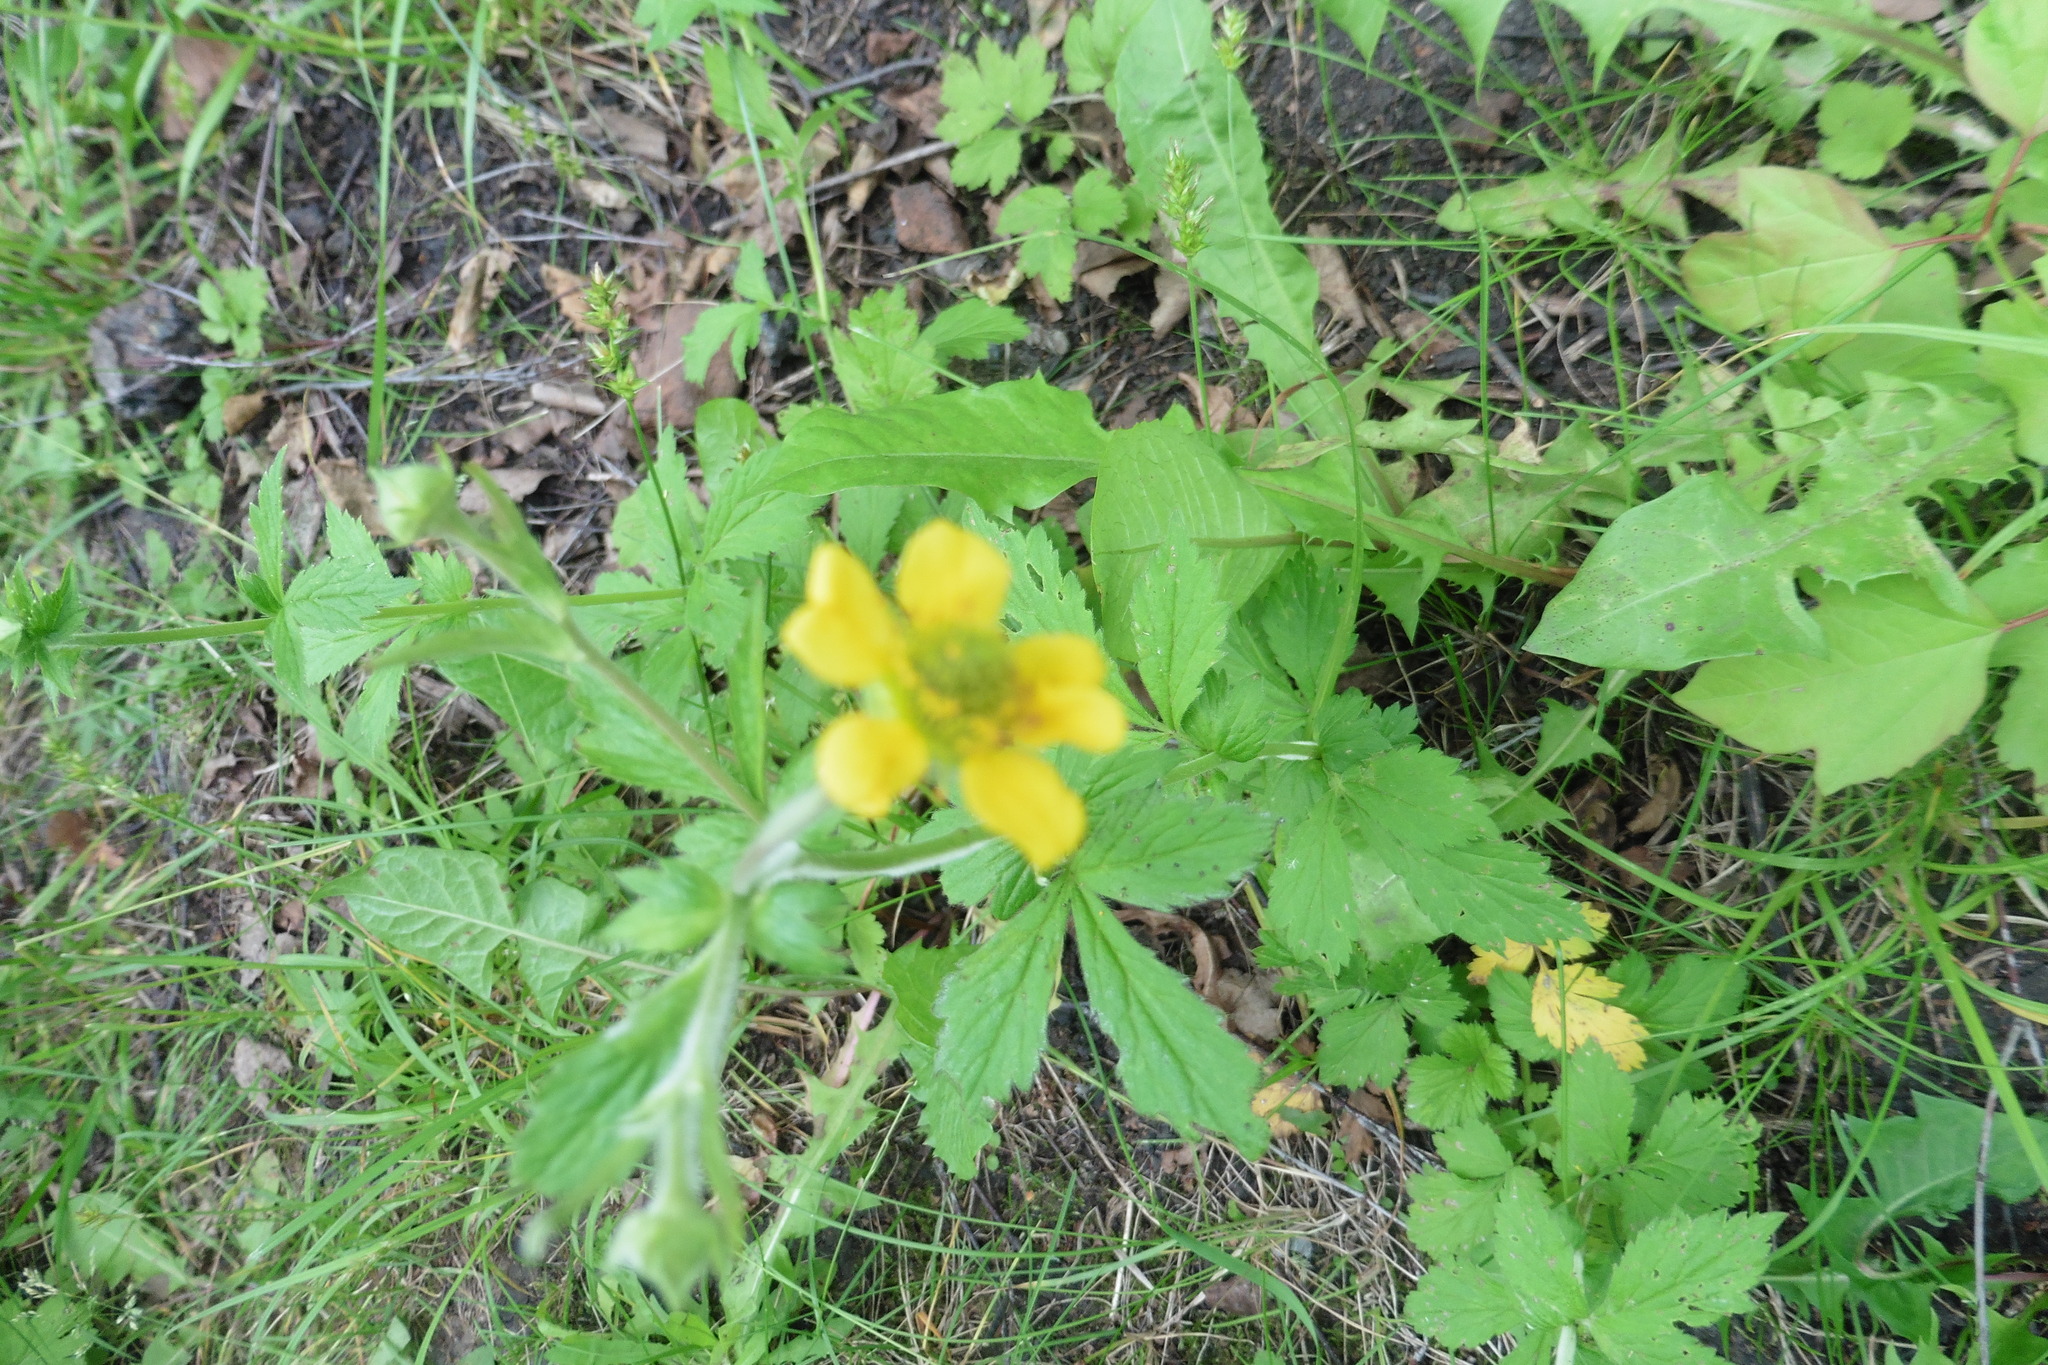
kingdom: Plantae
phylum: Tracheophyta
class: Magnoliopsida
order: Rosales
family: Rosaceae
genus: Geum
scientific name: Geum aleppicum
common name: Yellow avens
